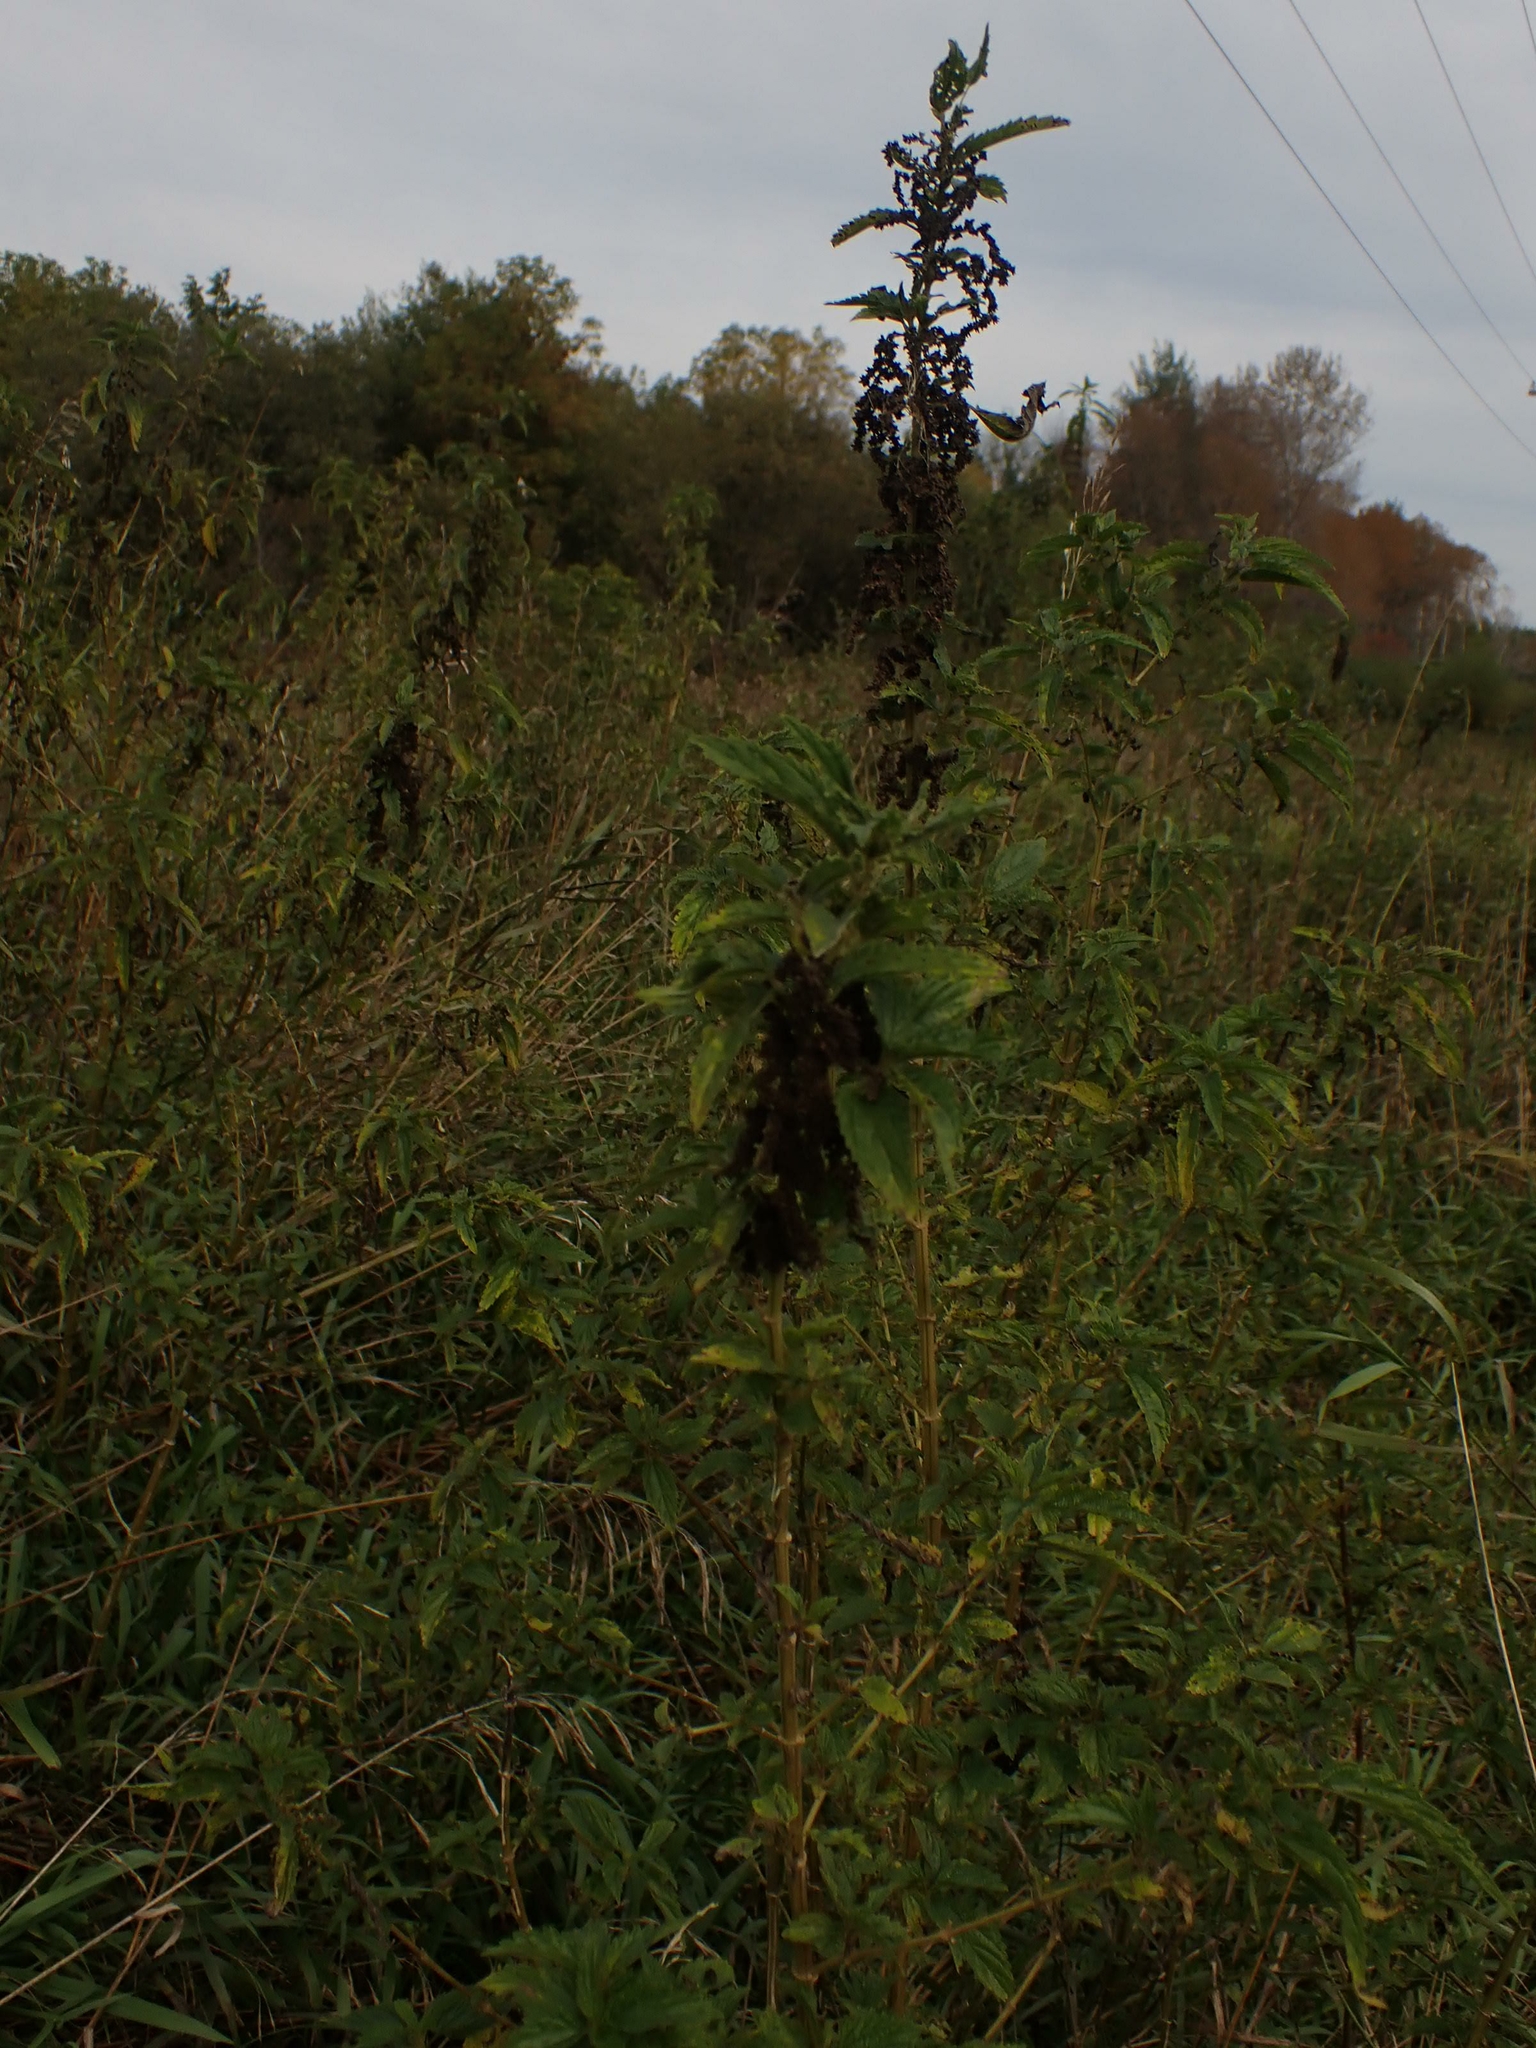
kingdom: Plantae
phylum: Tracheophyta
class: Magnoliopsida
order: Rosales
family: Urticaceae
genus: Urtica
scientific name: Urtica gracilis
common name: Slender stinging nettle
